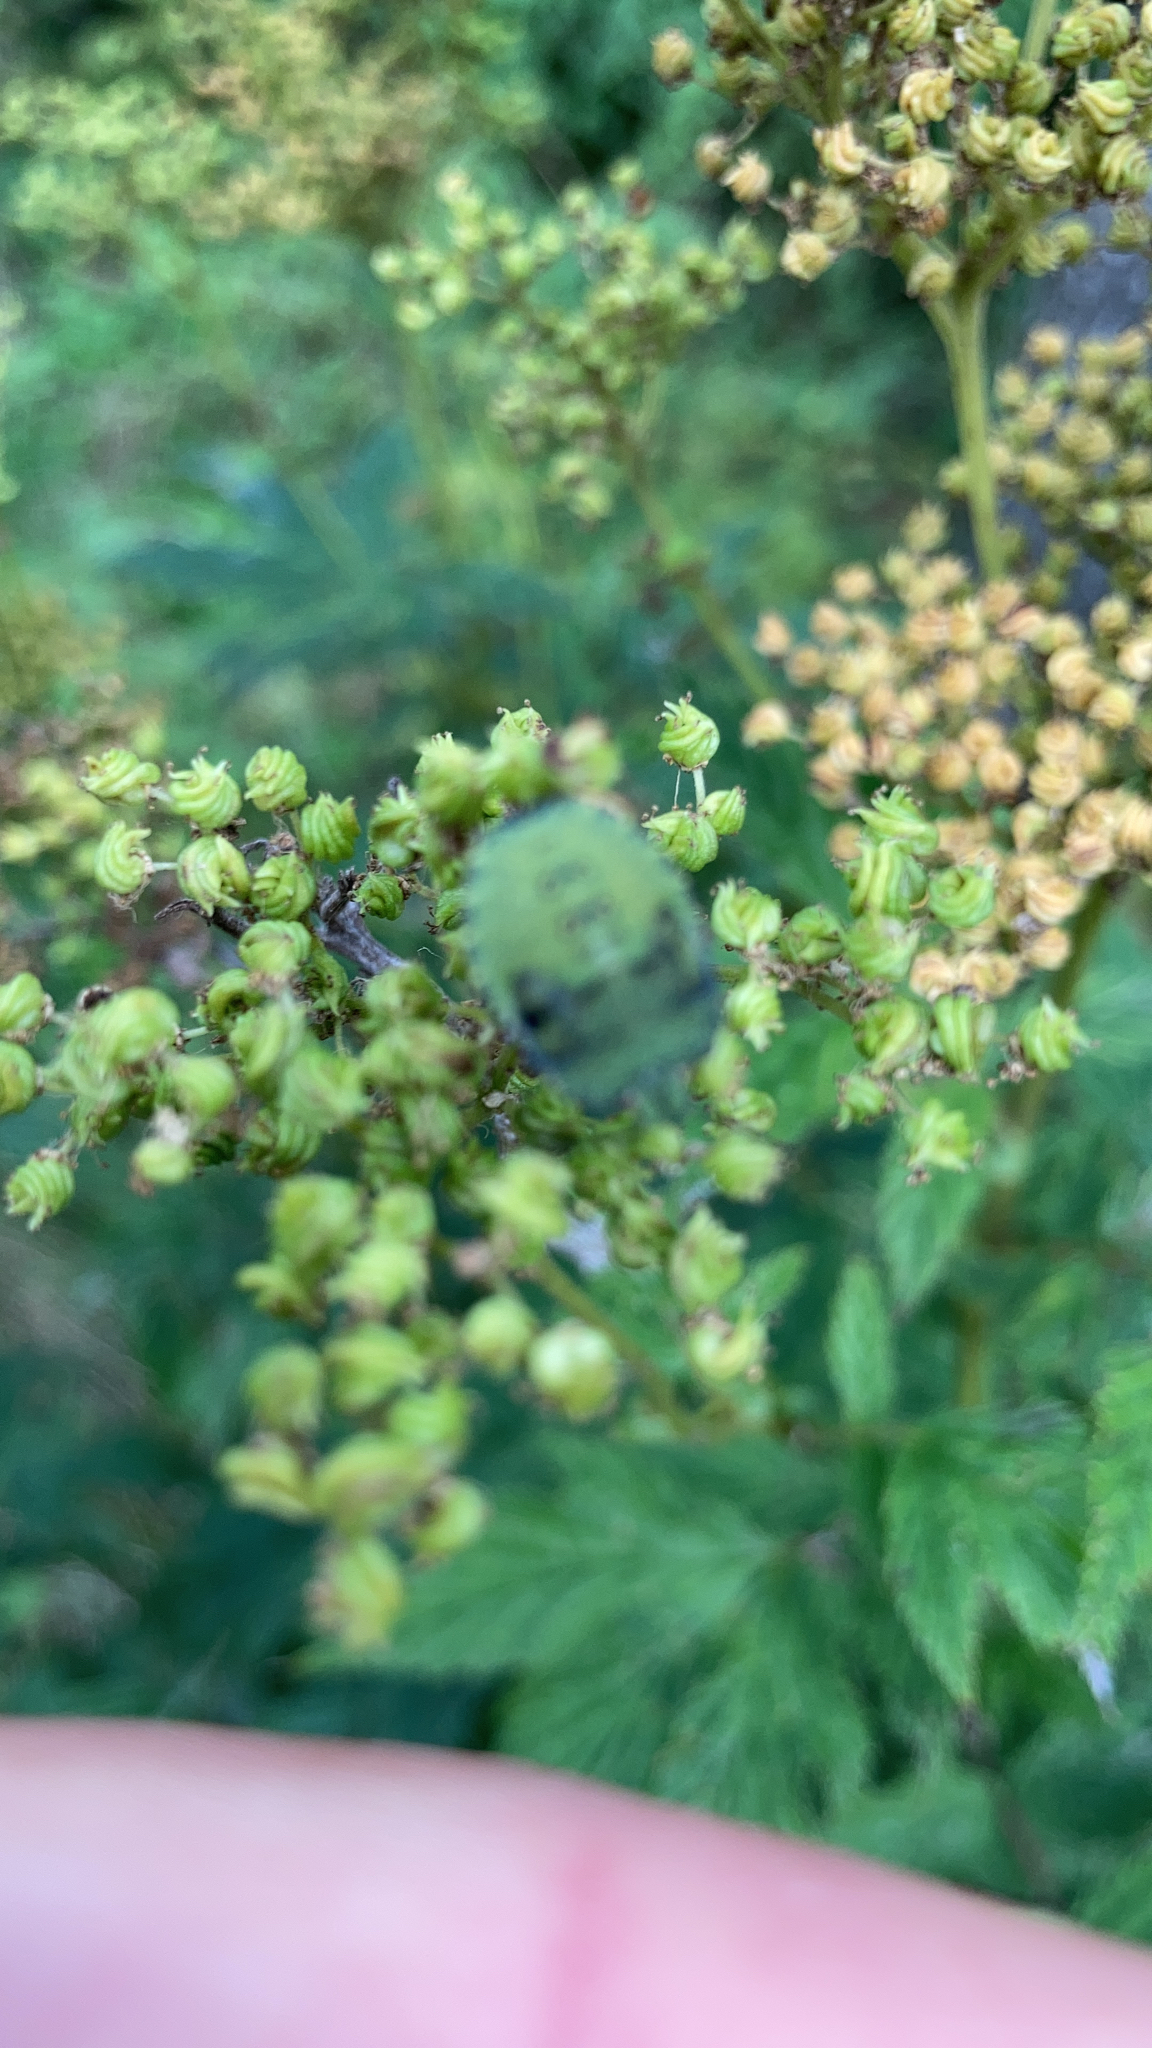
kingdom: Animalia
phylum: Arthropoda
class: Insecta
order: Hemiptera
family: Pentatomidae
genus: Palomena
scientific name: Palomena prasina
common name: Green shieldbug
